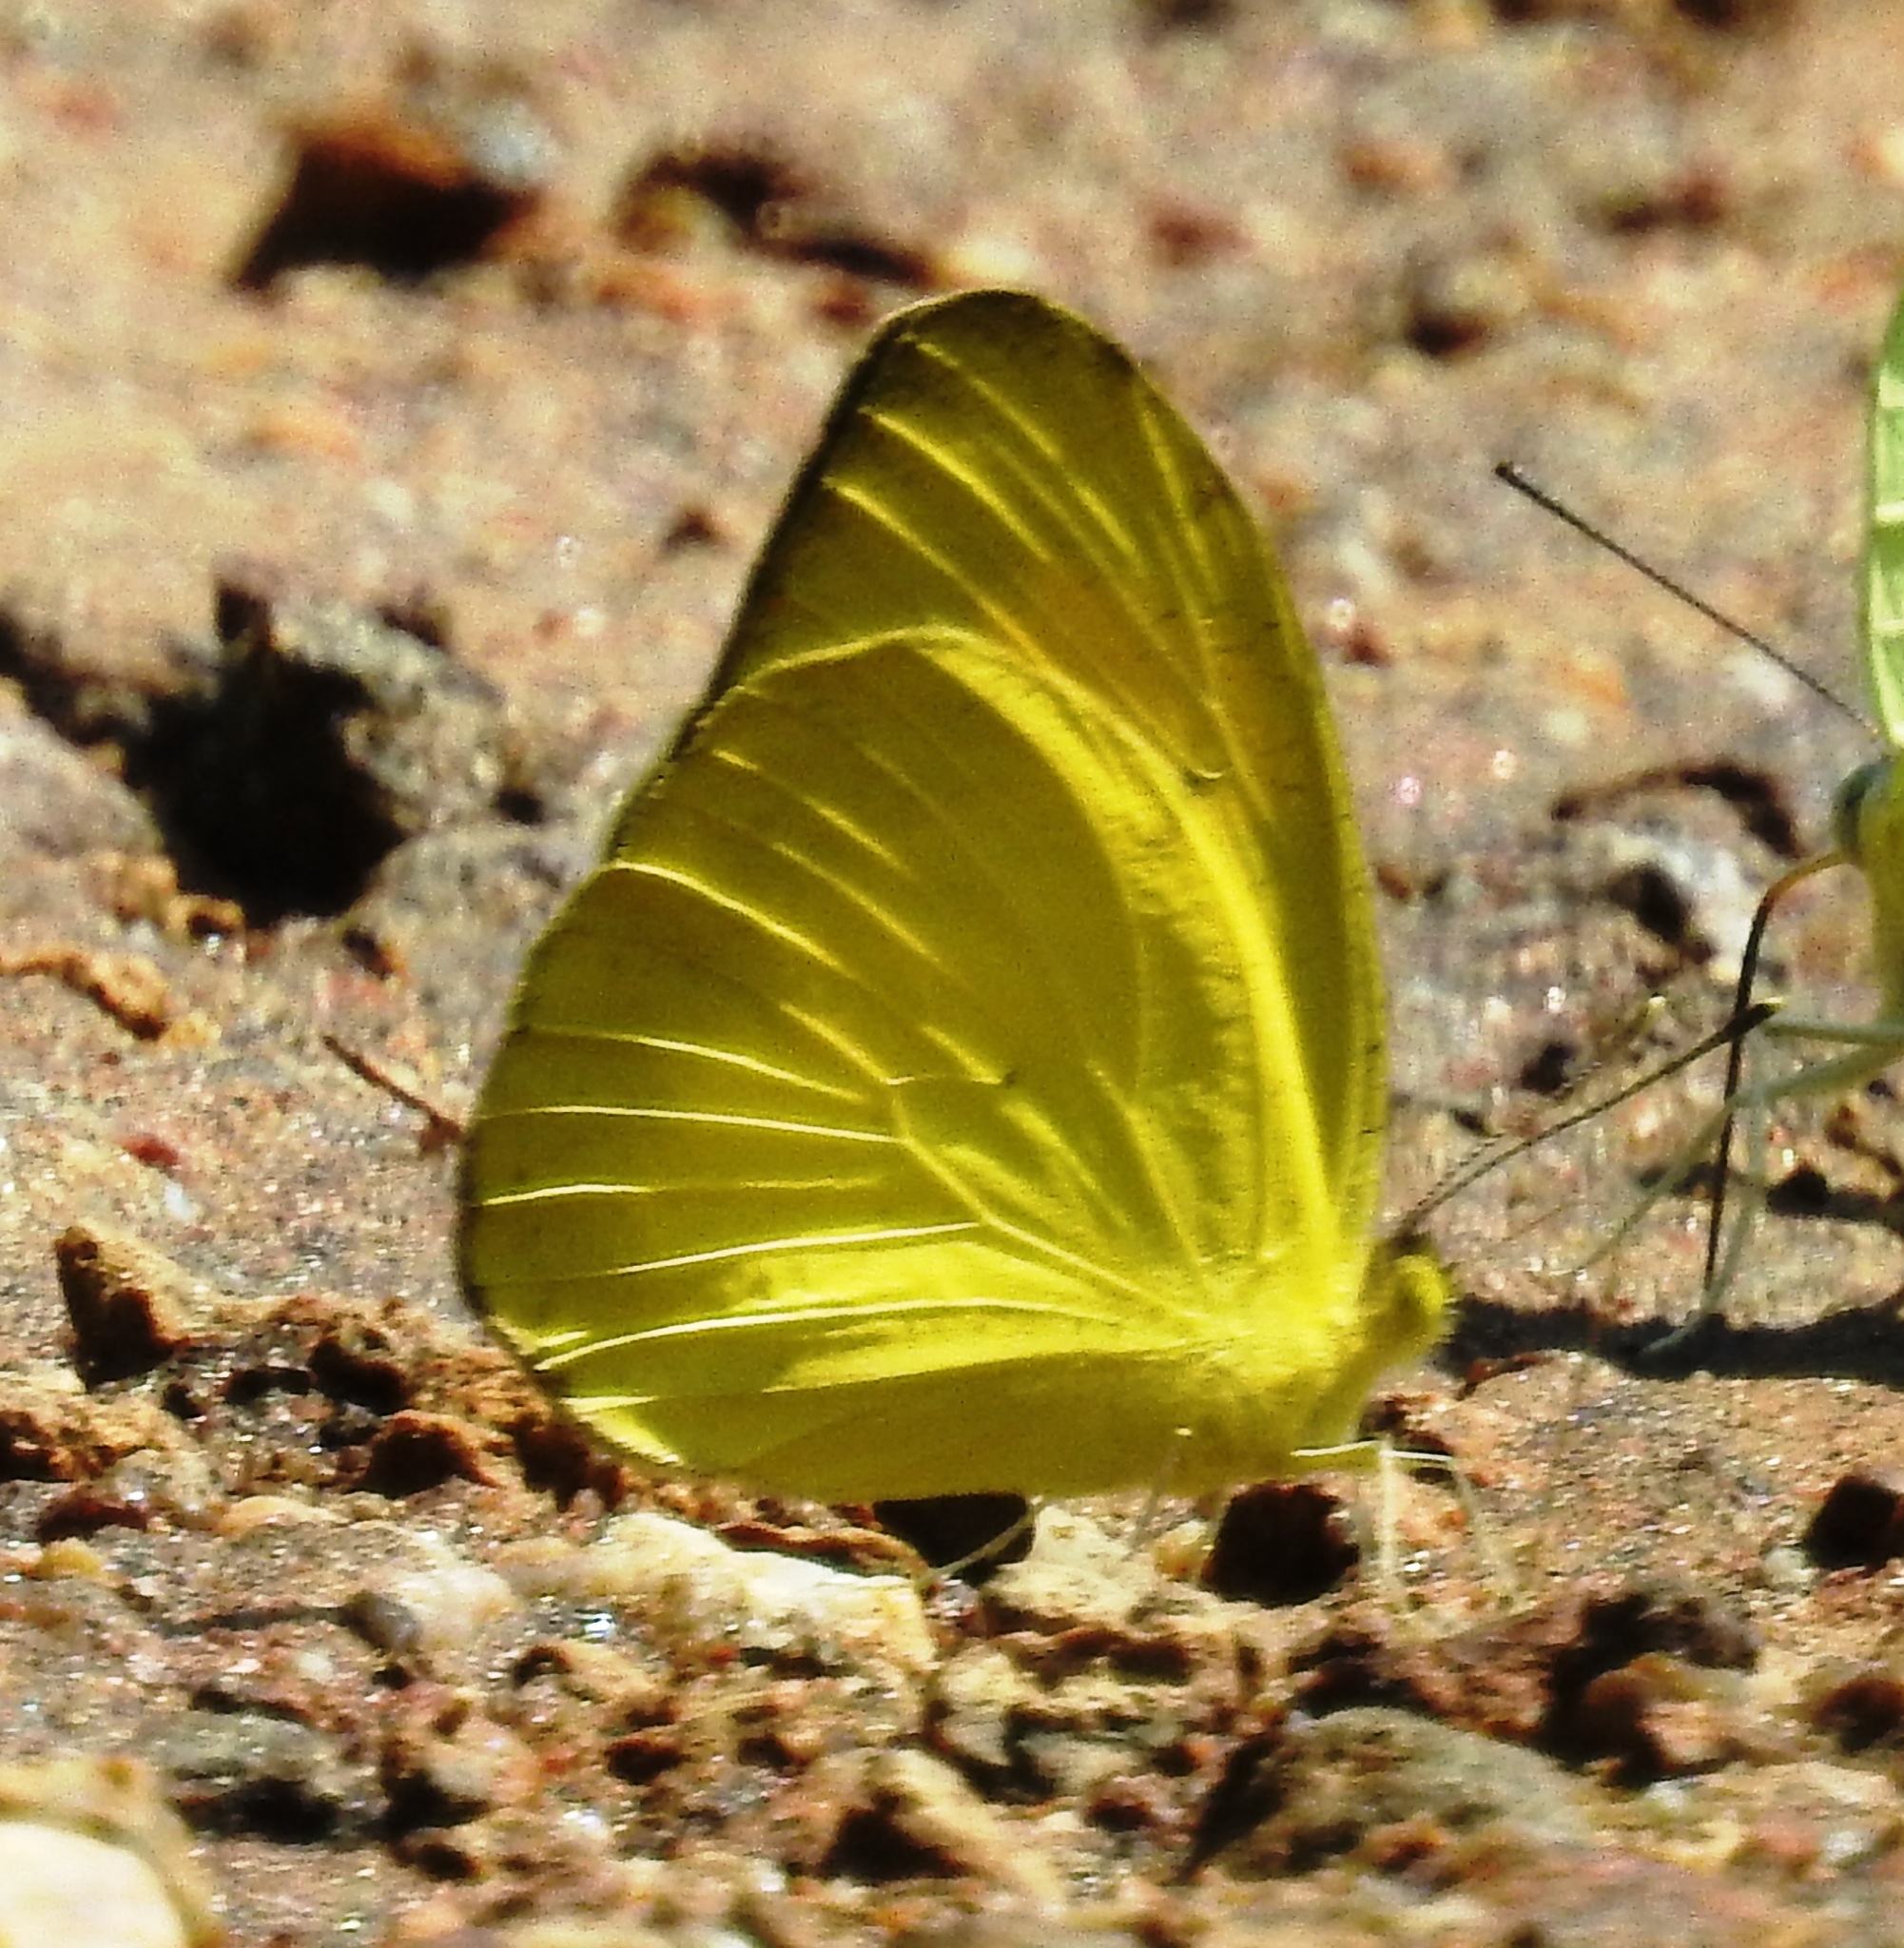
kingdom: Animalia
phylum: Arthropoda
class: Insecta
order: Lepidoptera
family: Pieridae
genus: Ixias
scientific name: Ixias pyrene
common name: Yellow orange tip
